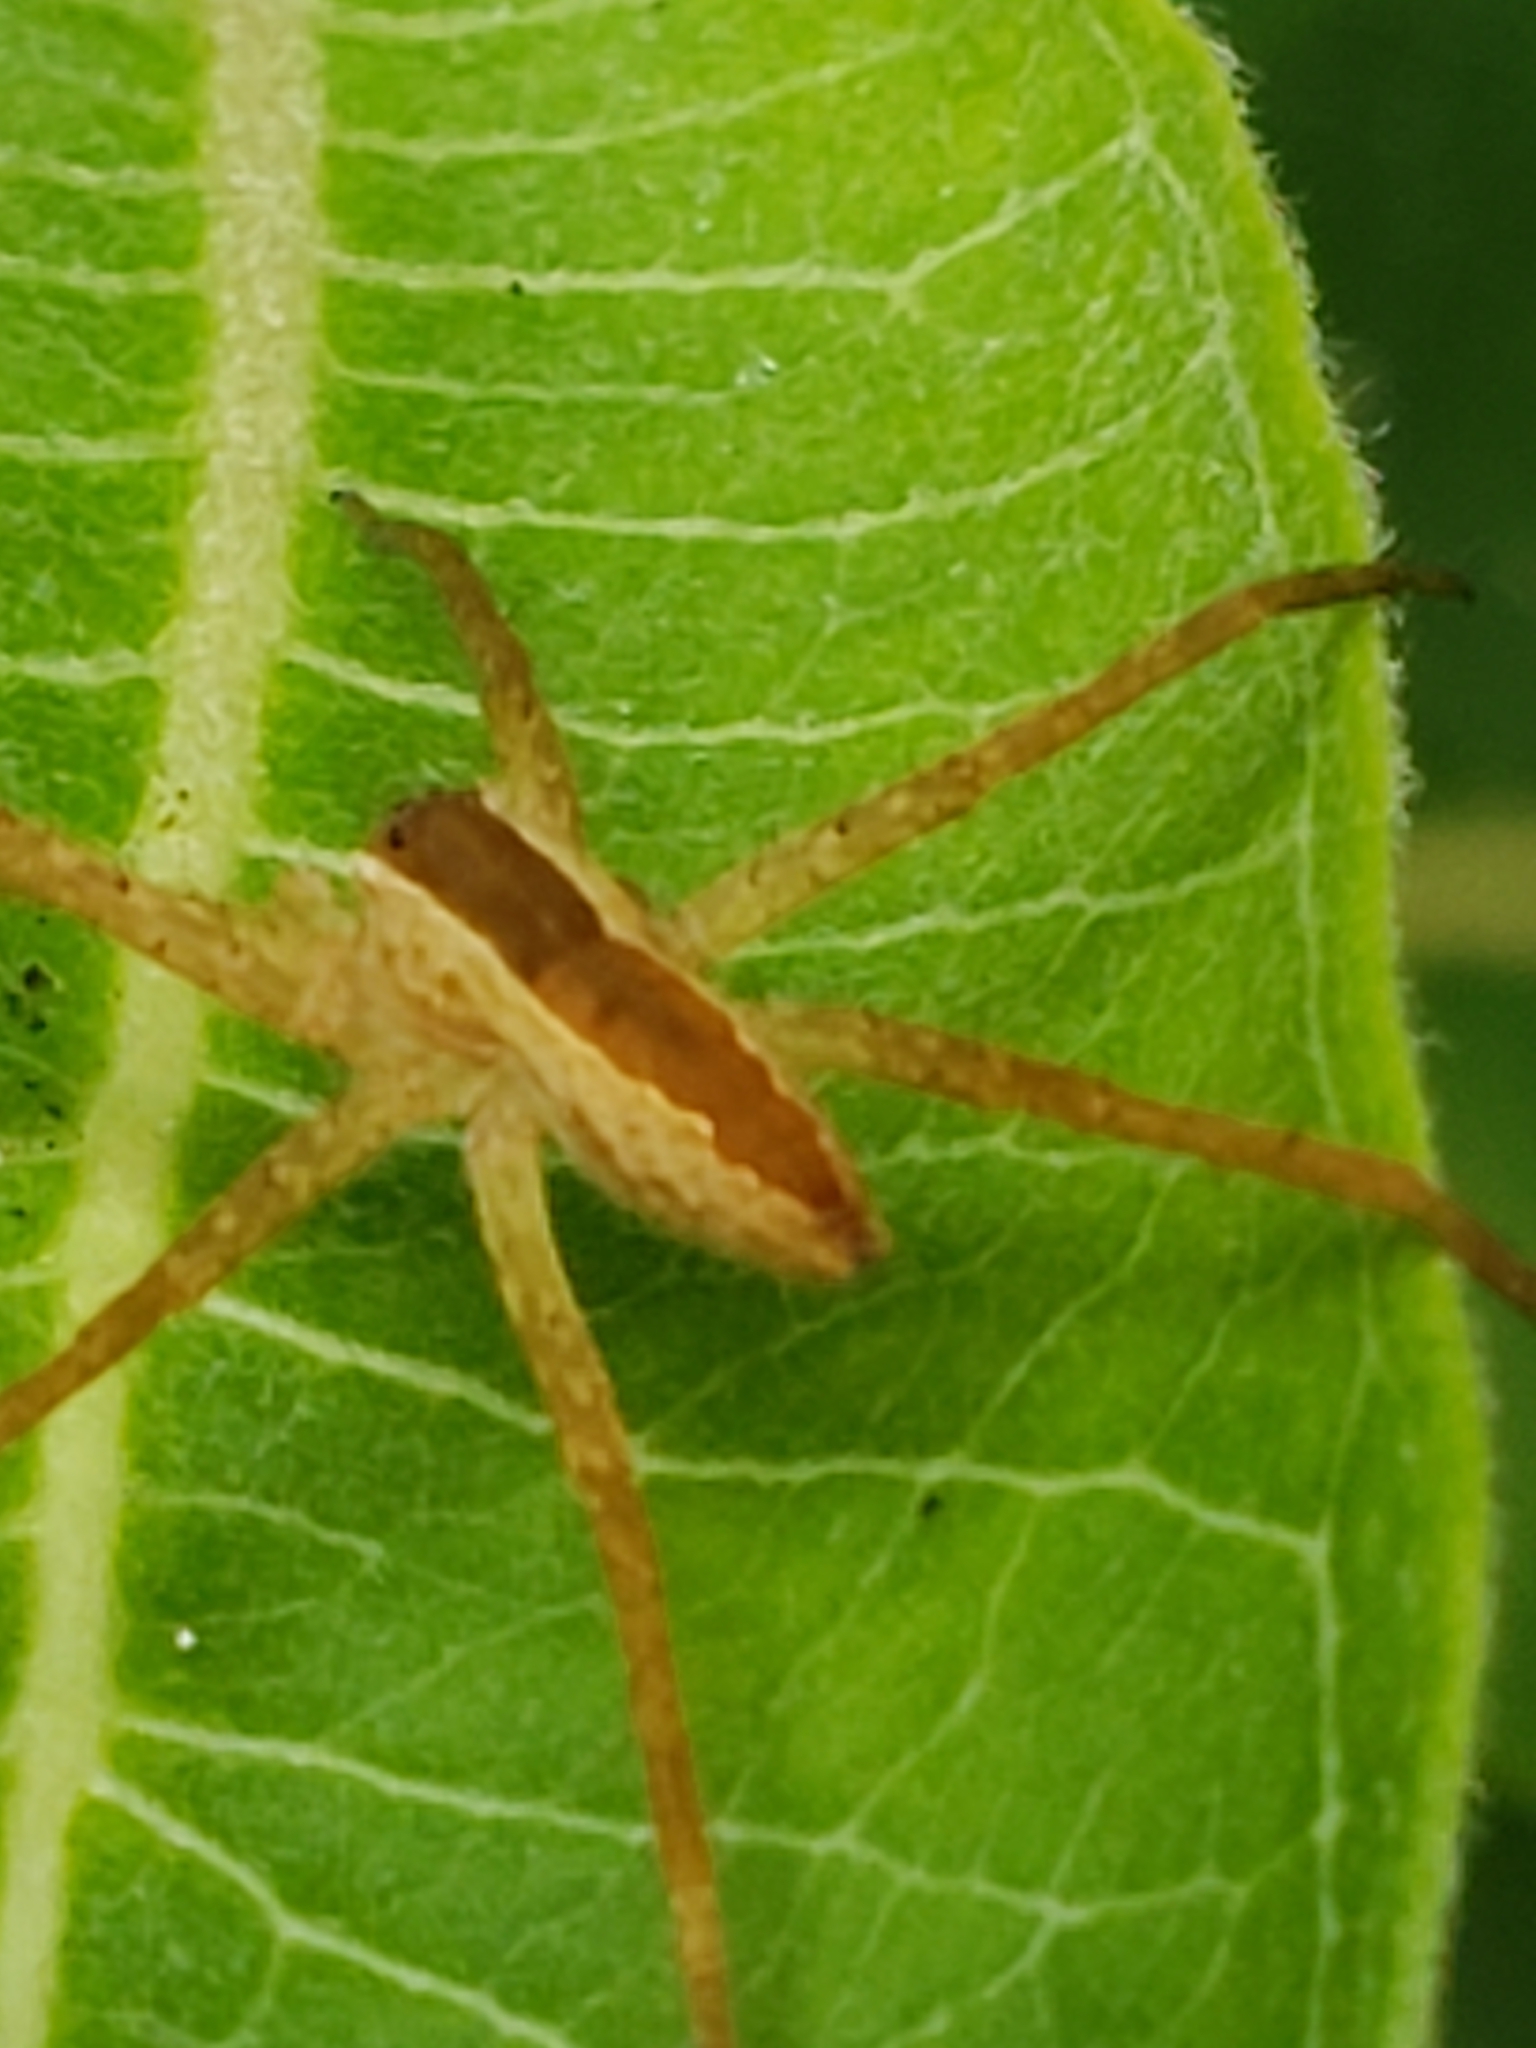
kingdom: Animalia
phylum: Arthropoda
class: Arachnida
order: Araneae
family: Pisauridae
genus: Pisaurina
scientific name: Pisaurina mira
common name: American nursery web spider
